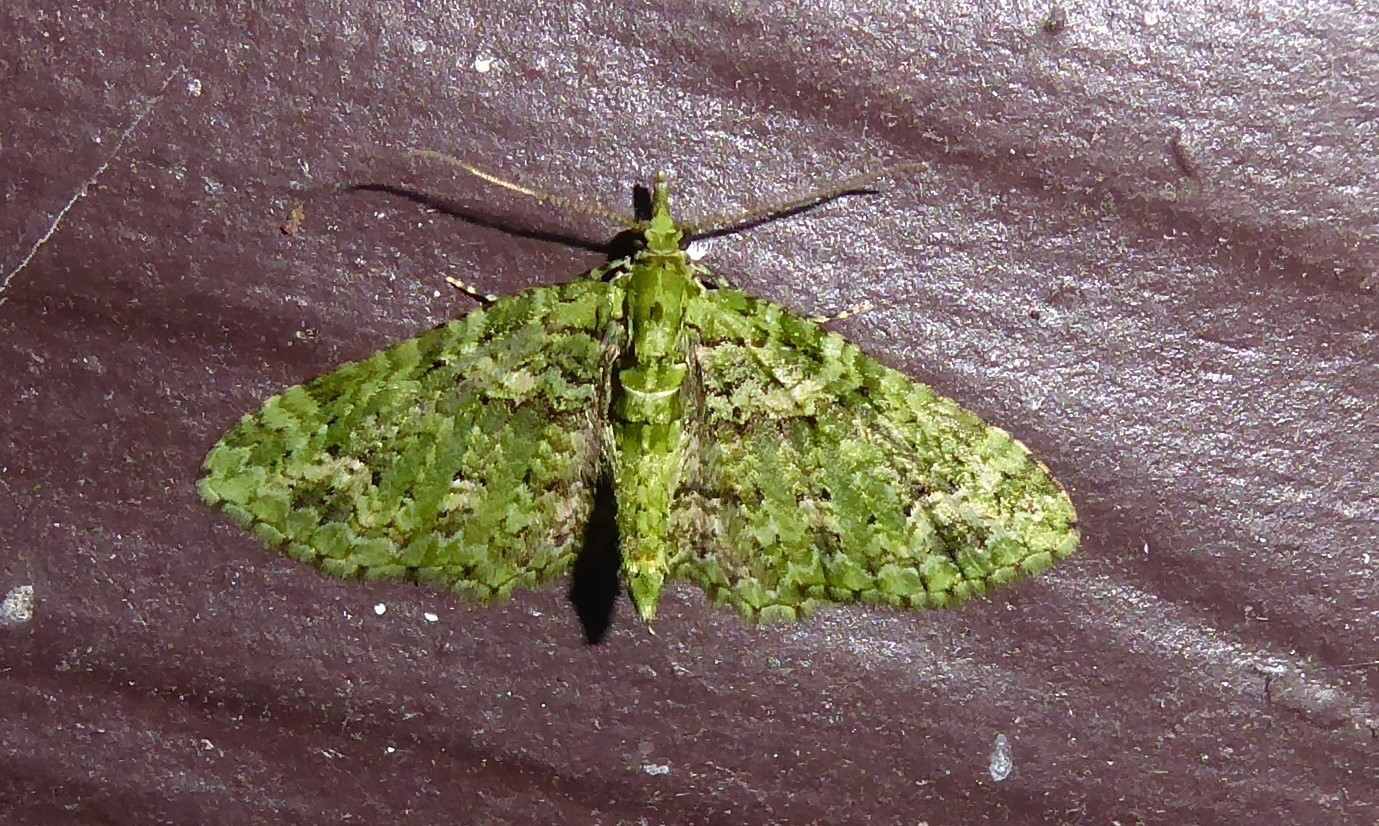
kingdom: Animalia
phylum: Arthropoda
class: Insecta
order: Lepidoptera
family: Geometridae
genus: Pasiphila
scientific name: Pasiphila muscosata
